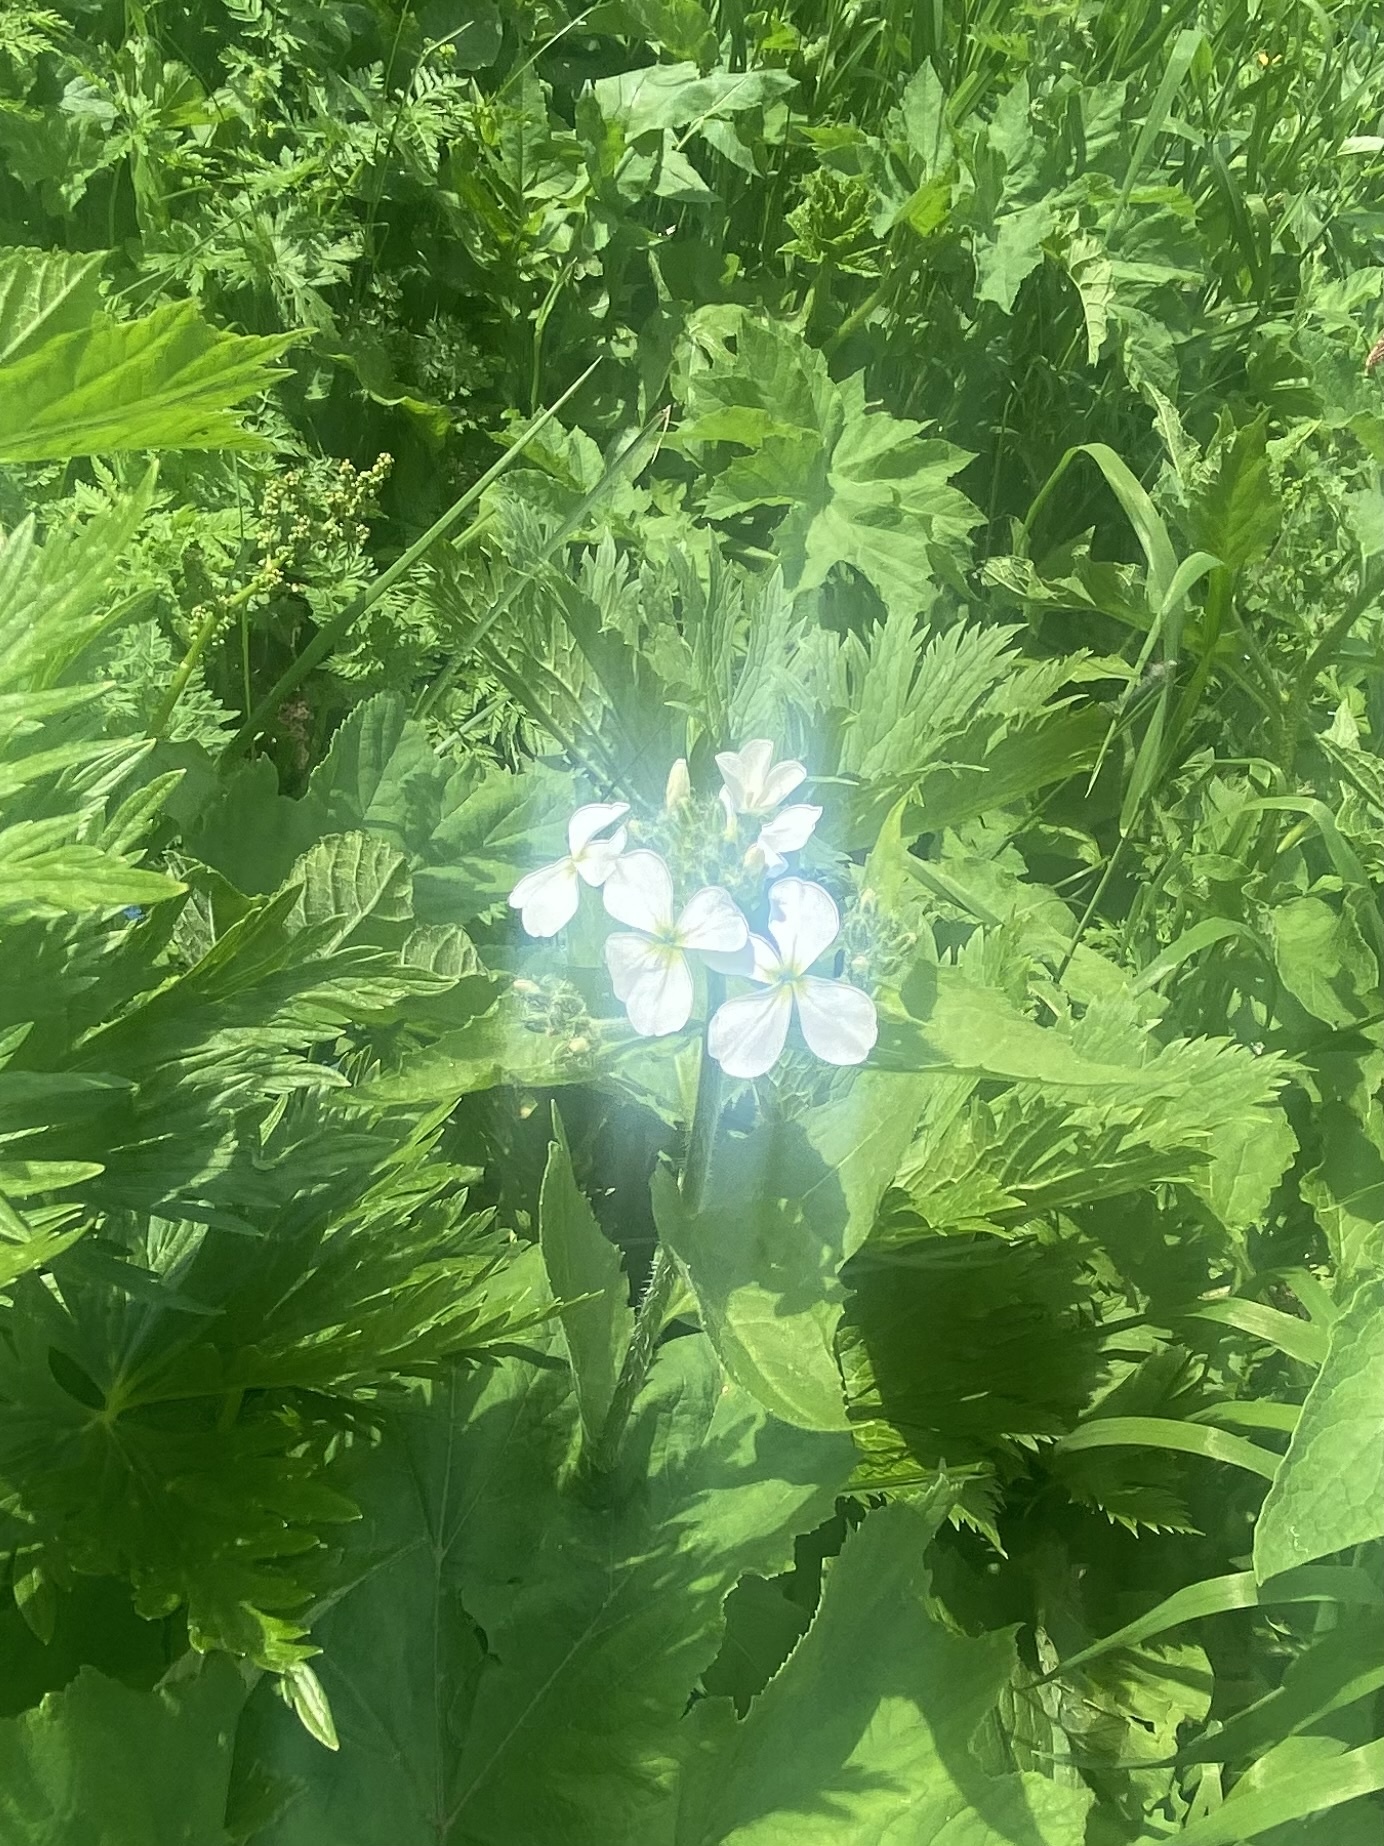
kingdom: Plantae
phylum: Tracheophyta
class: Magnoliopsida
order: Brassicales
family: Brassicaceae
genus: Hesperis
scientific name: Hesperis matronalis
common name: Dame's-violet
